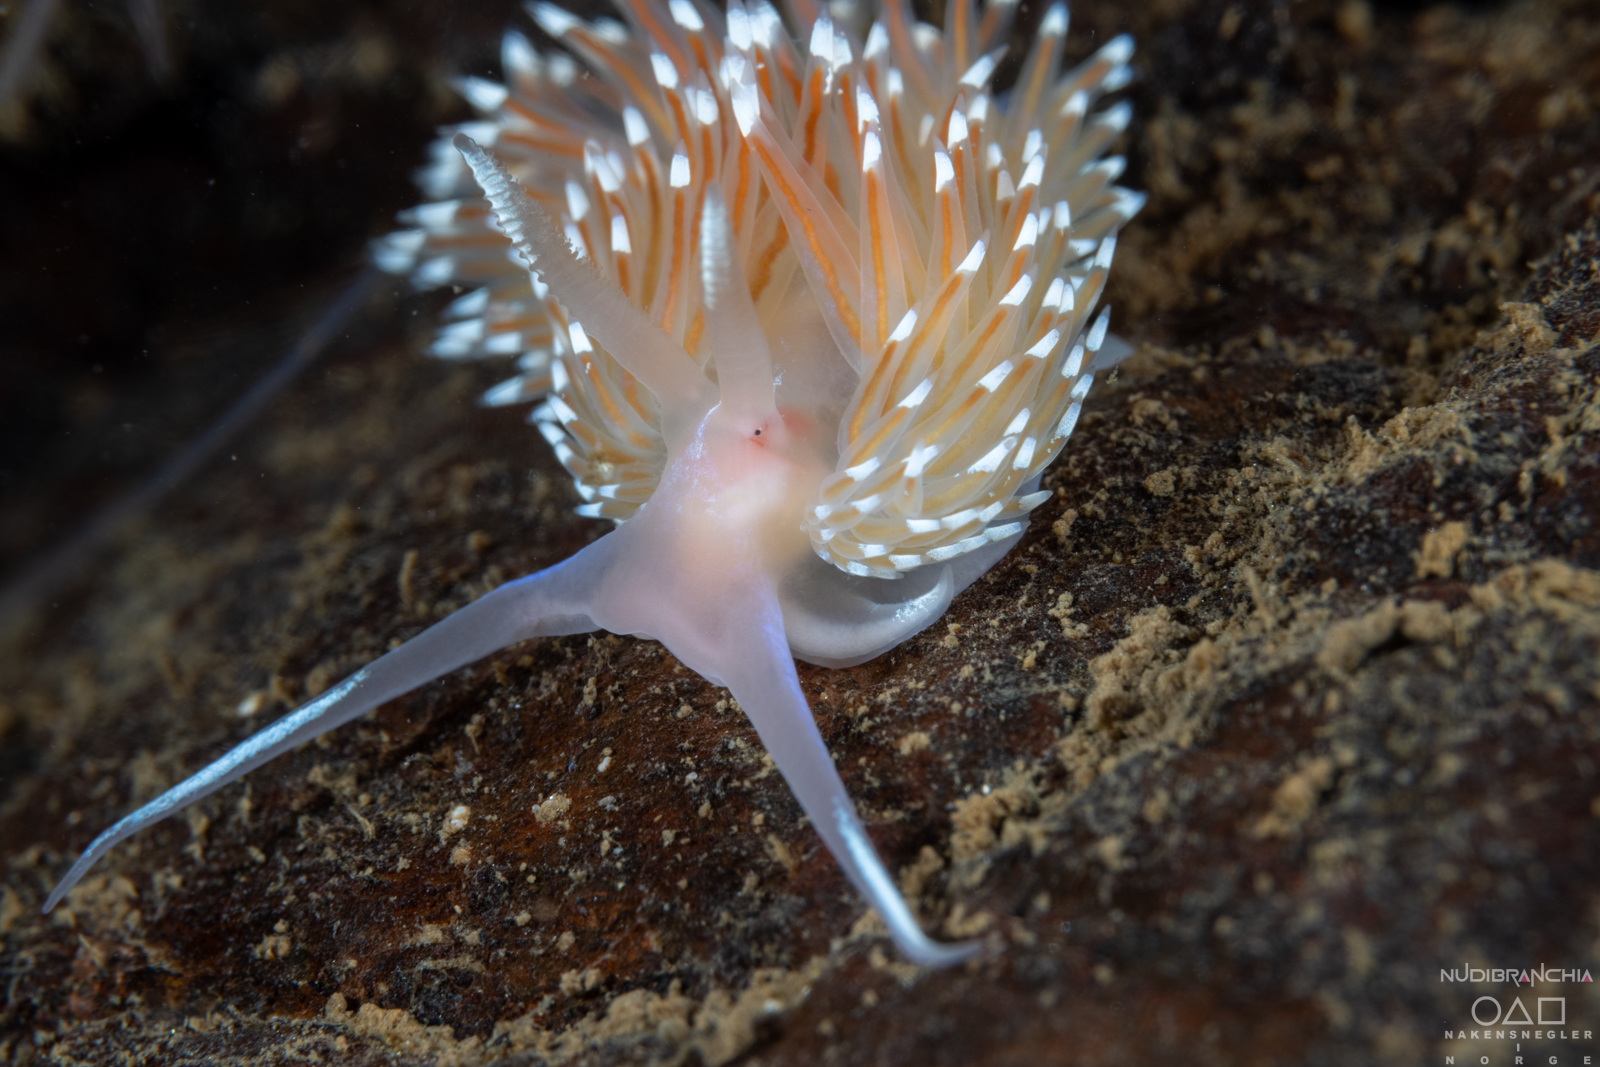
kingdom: Animalia
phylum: Mollusca
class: Gastropoda
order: Nudibranchia
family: Facelinidae
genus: Facelina
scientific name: Facelina bostoniensis
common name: Boston facelina
